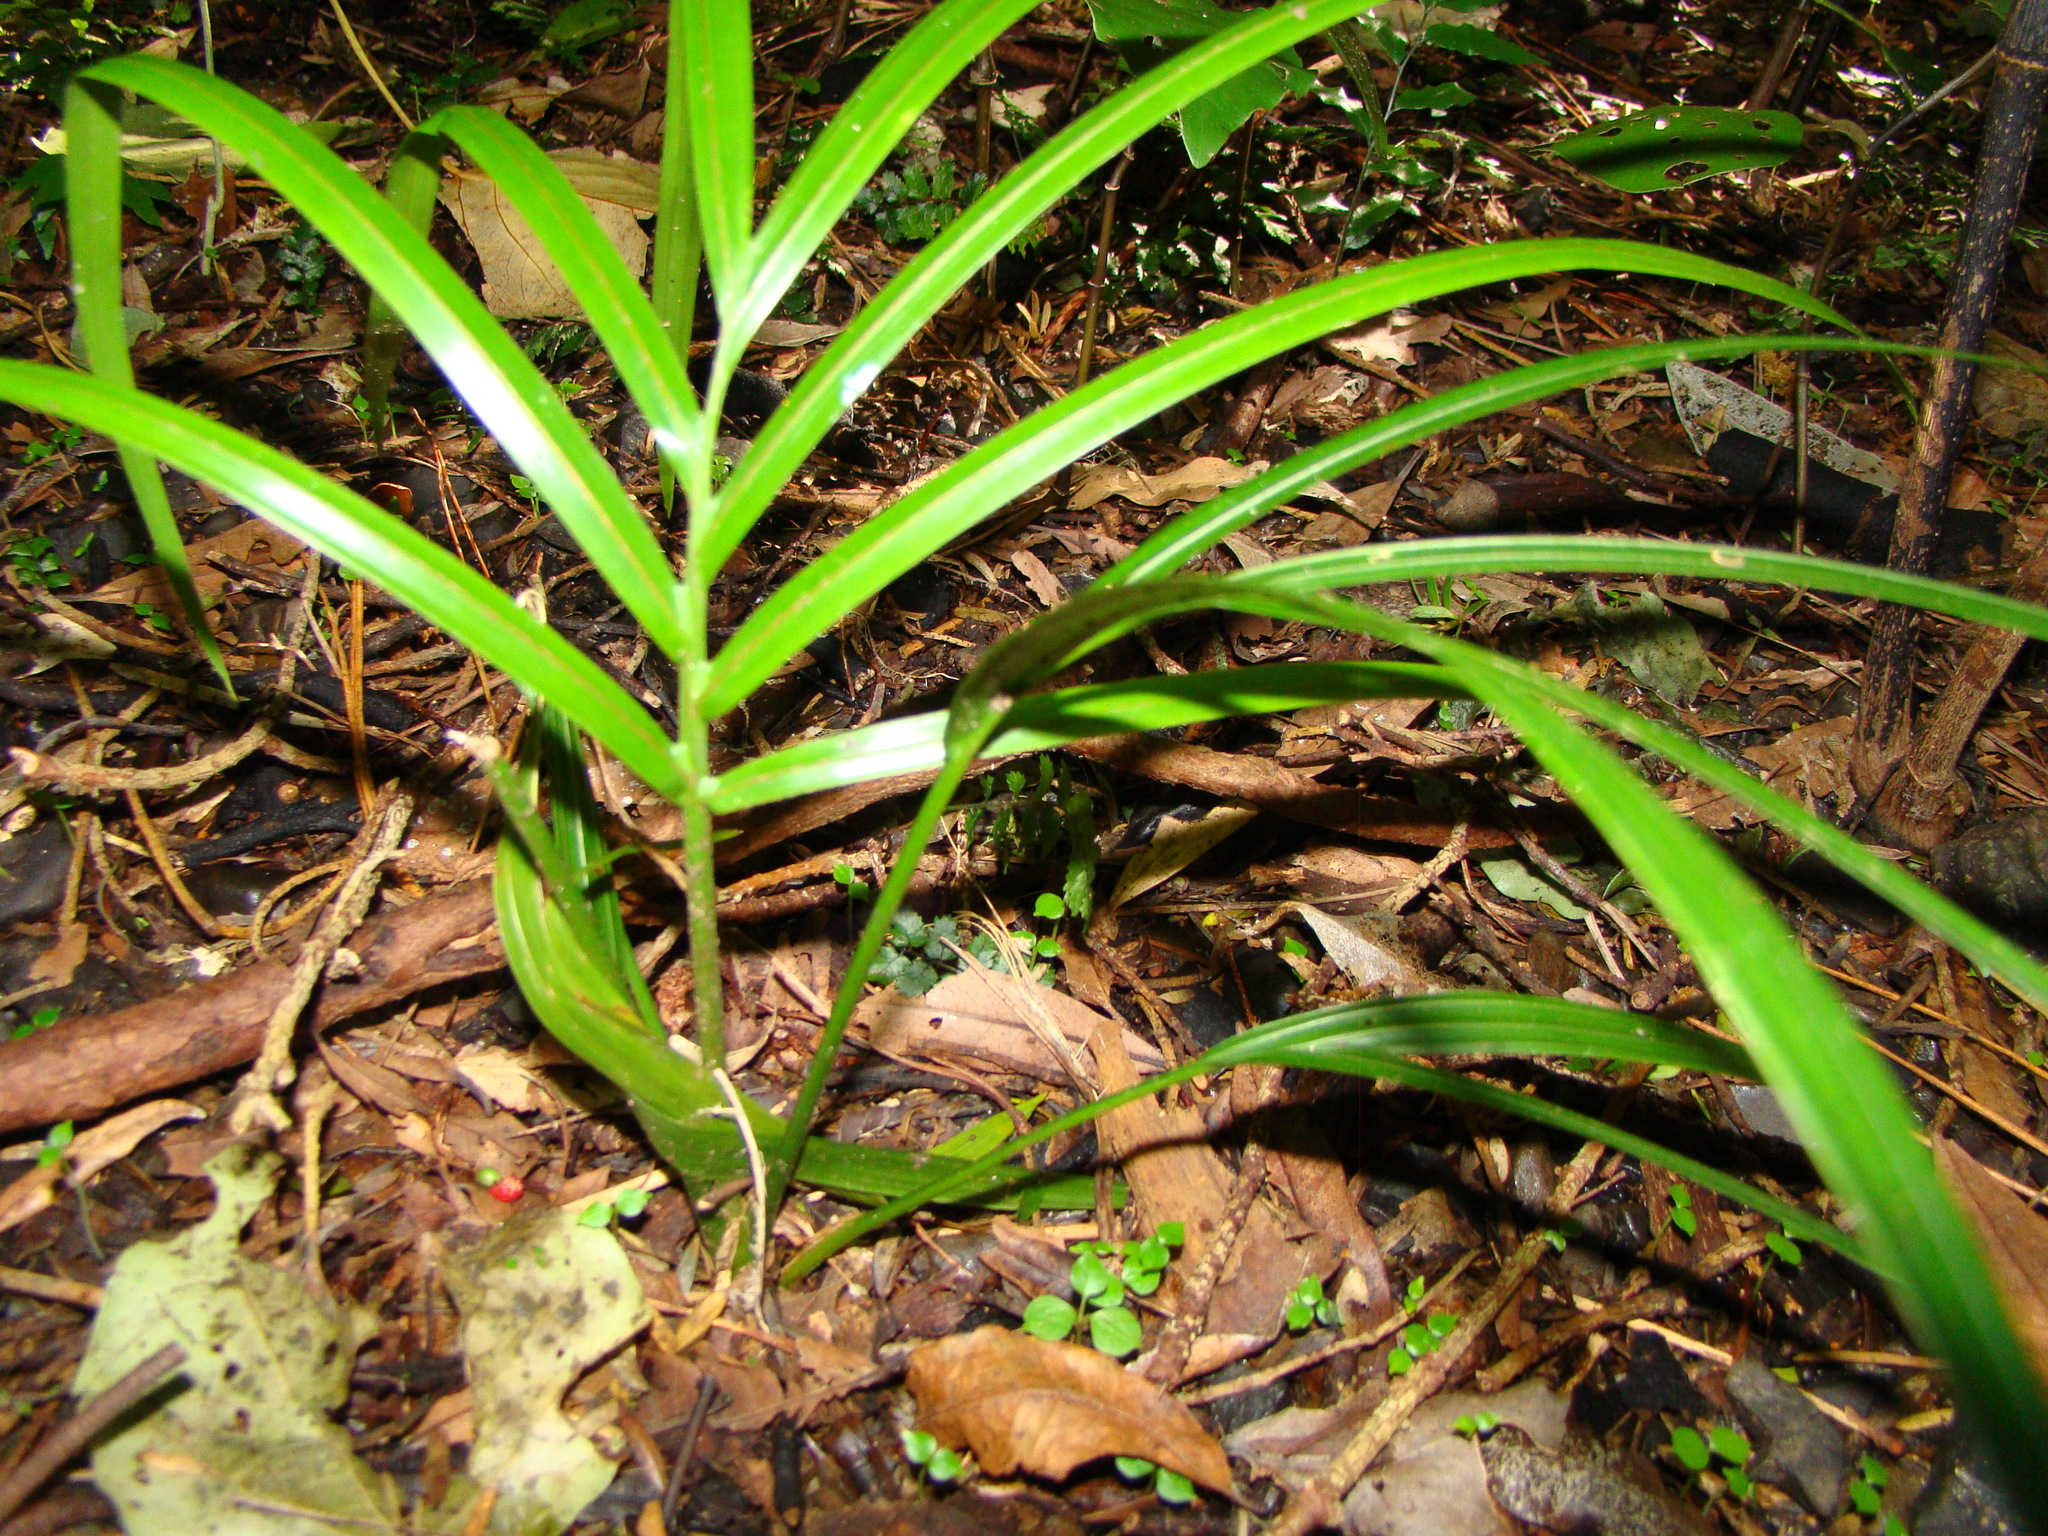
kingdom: Plantae
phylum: Tracheophyta
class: Liliopsida
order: Arecales
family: Arecaceae
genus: Rhopalostylis
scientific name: Rhopalostylis sapida
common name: Feather-duster palm
